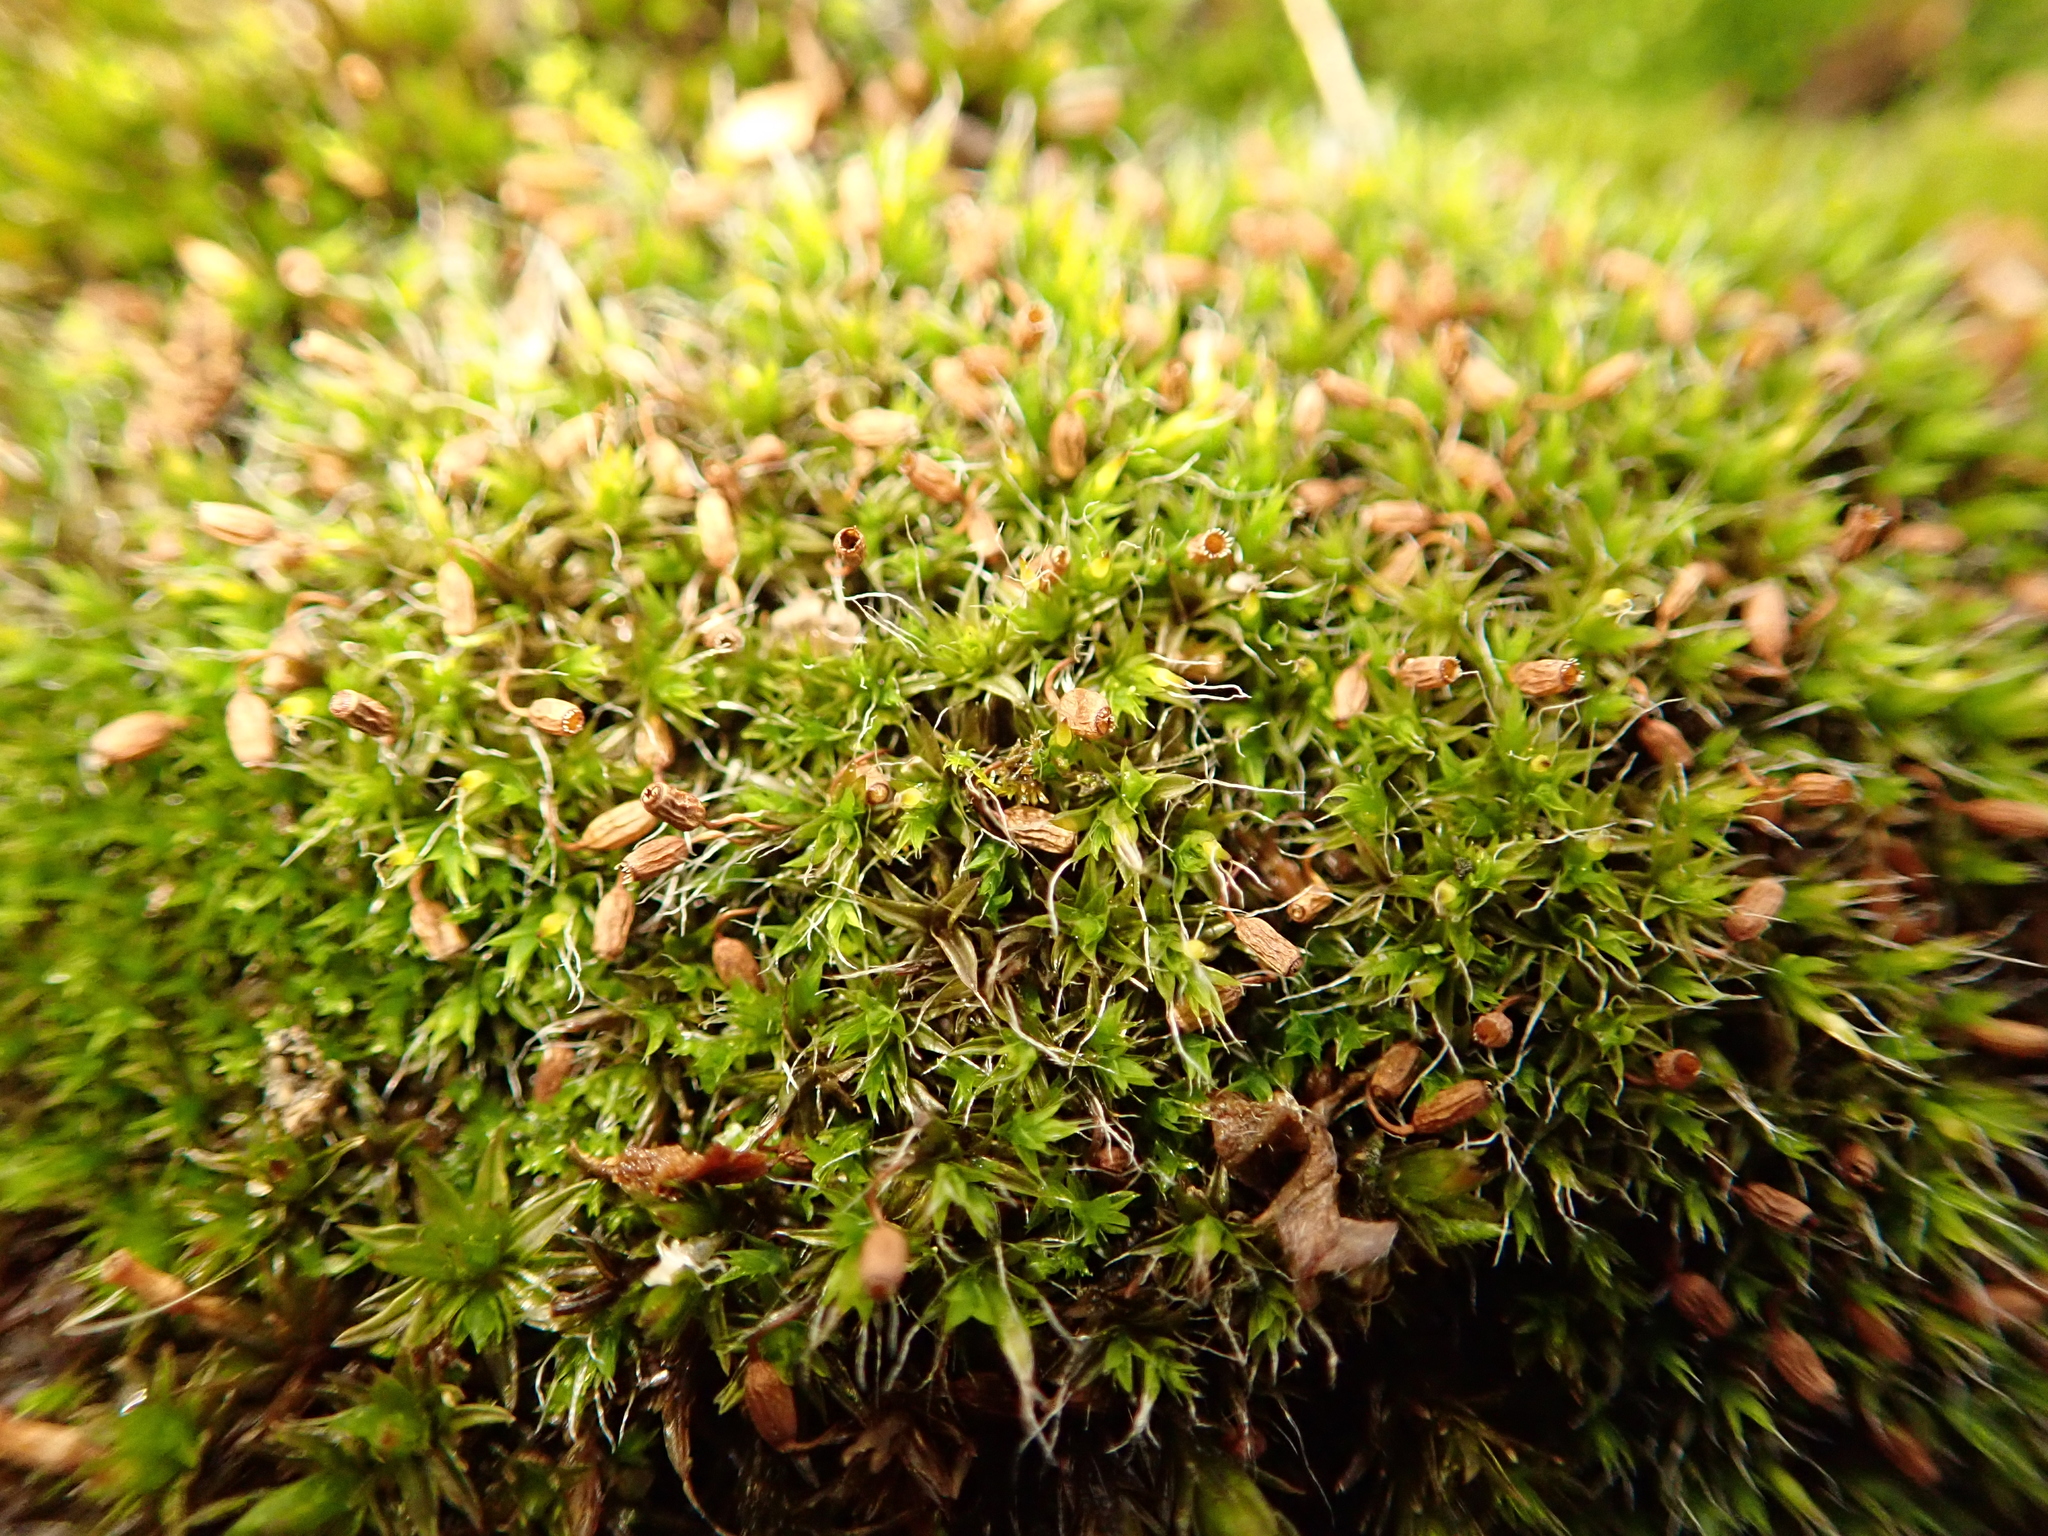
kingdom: Plantae
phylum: Bryophyta
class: Bryopsida
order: Grimmiales
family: Grimmiaceae
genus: Grimmia
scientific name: Grimmia pulvinata
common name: Grey-cushioned grimmia
